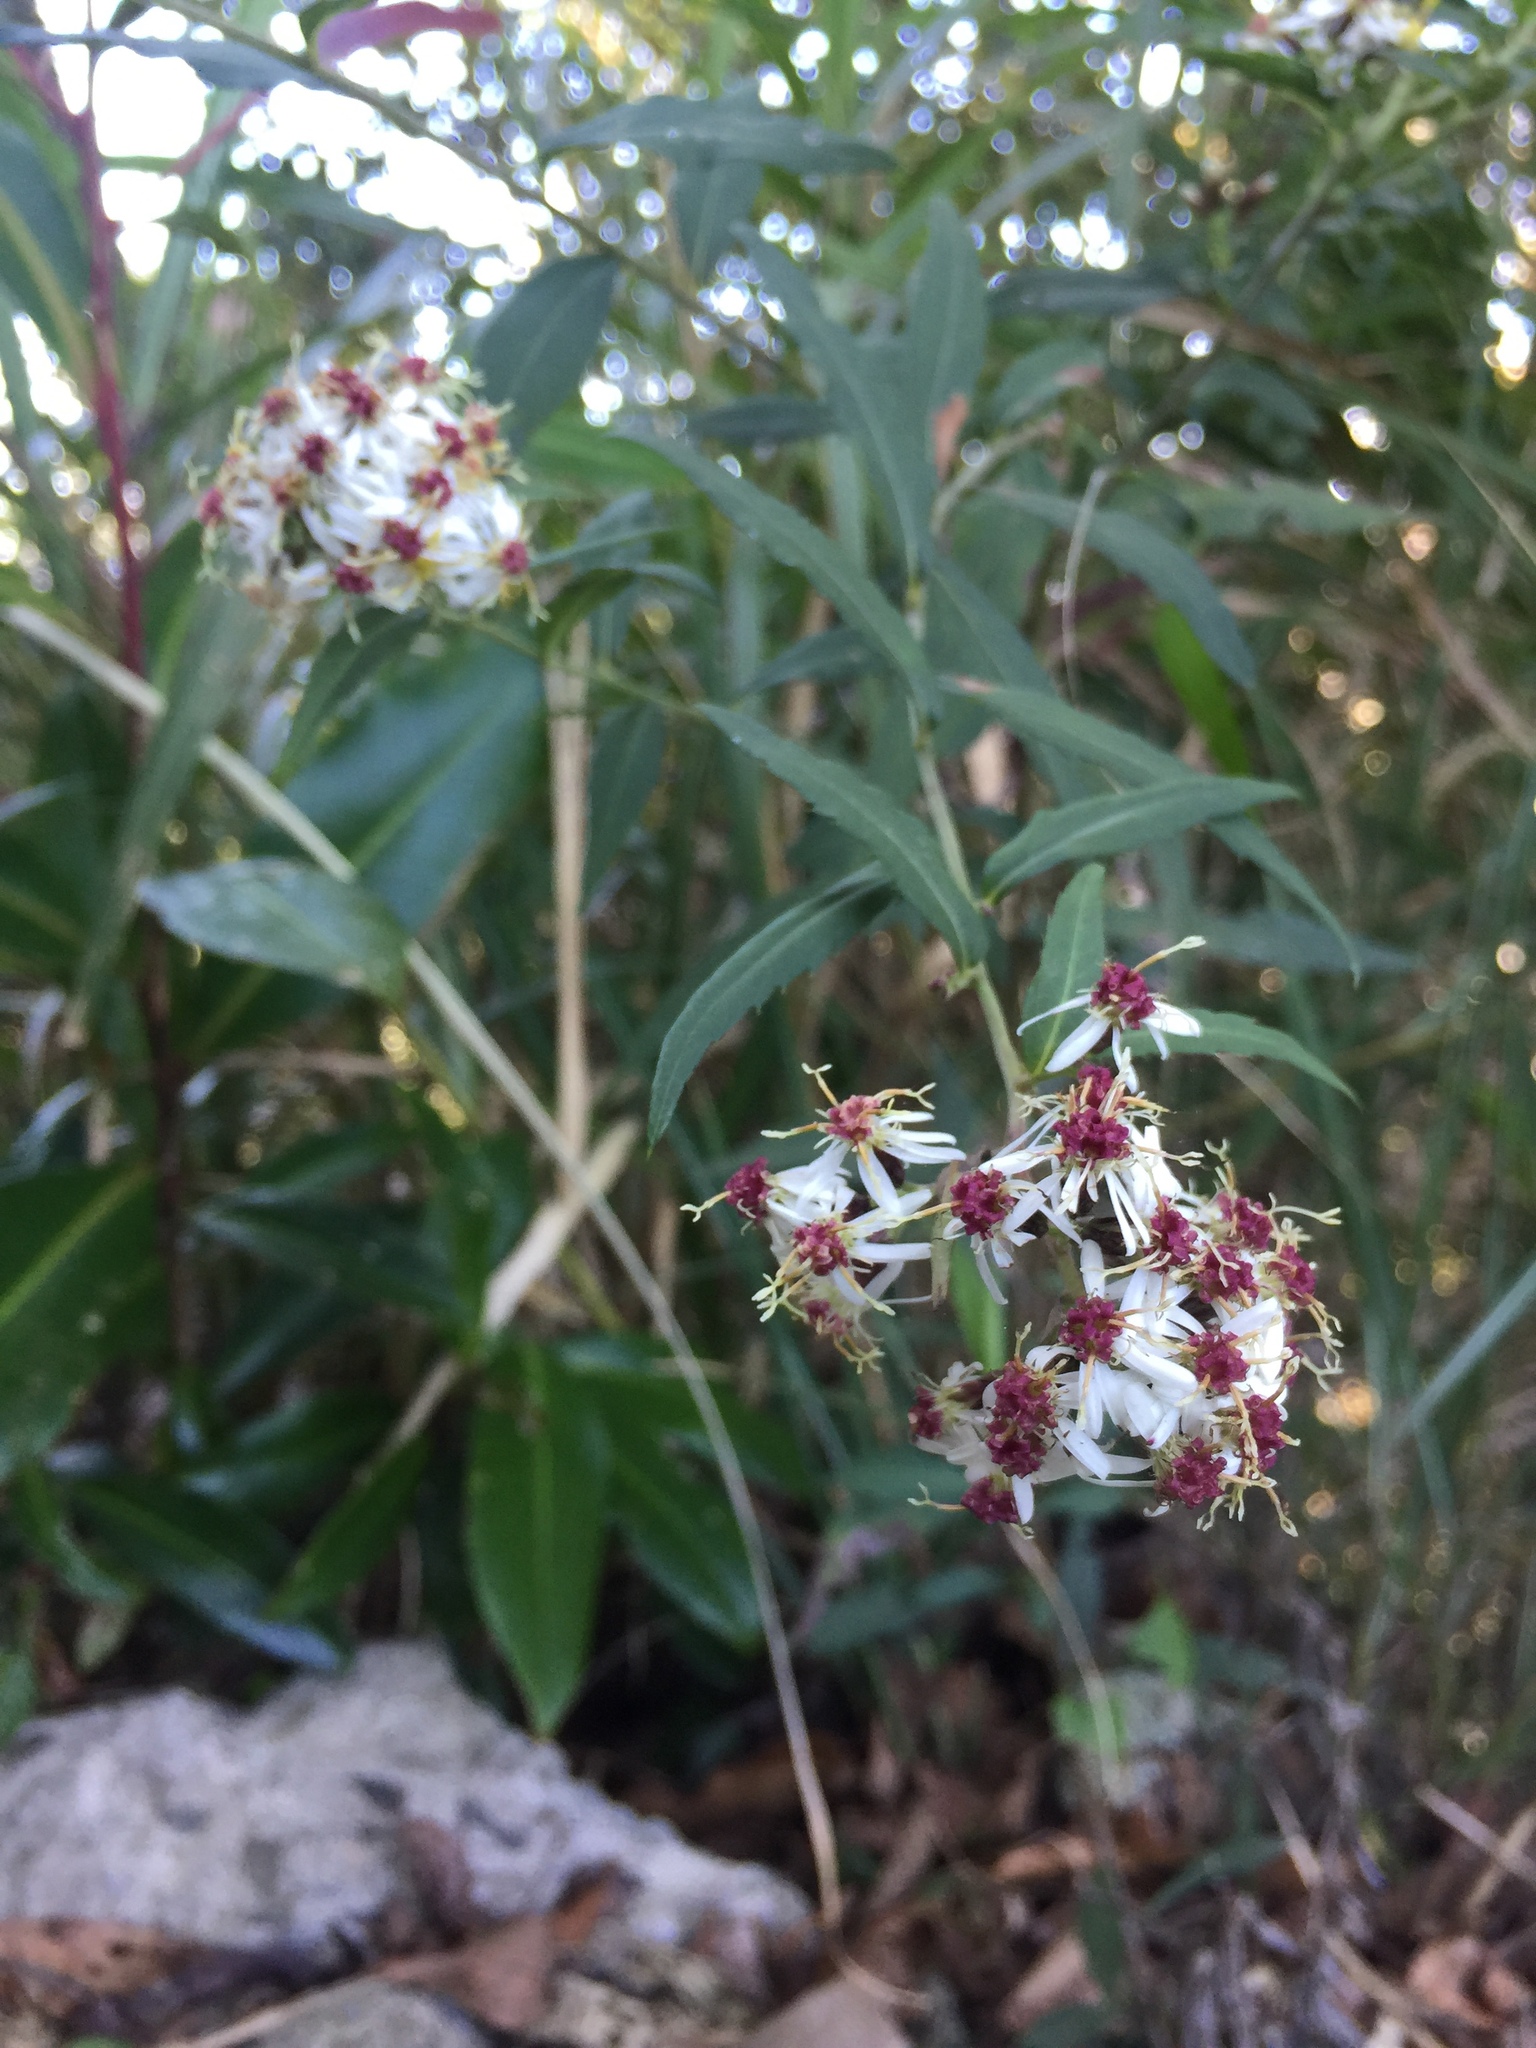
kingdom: Plantae
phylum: Tracheophyta
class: Magnoliopsida
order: Asterales
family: Asteraceae
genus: Aster
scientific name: Aster taiwanensis
